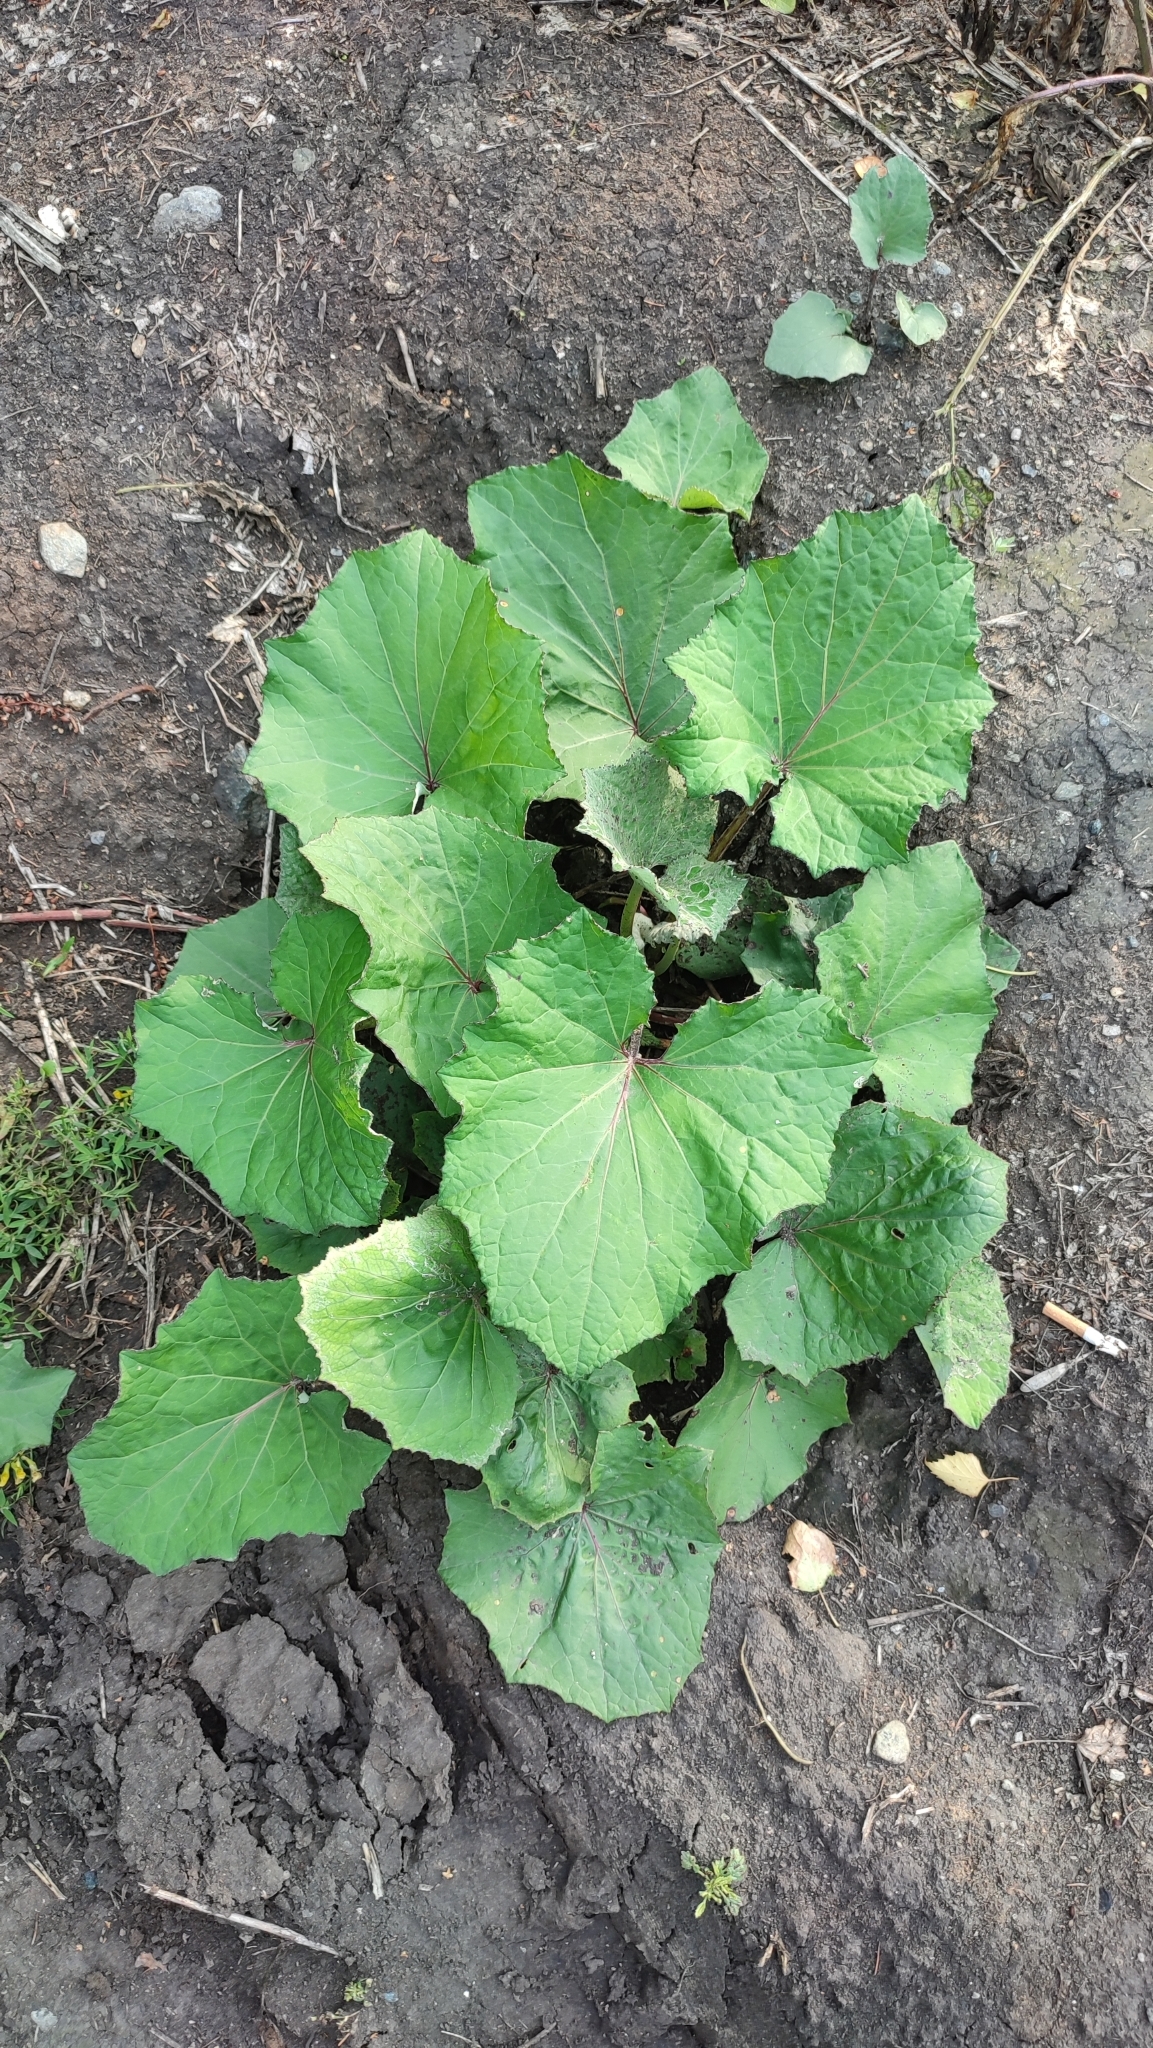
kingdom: Plantae
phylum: Tracheophyta
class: Magnoliopsida
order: Asterales
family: Asteraceae
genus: Tussilago
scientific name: Tussilago farfara
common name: Coltsfoot
